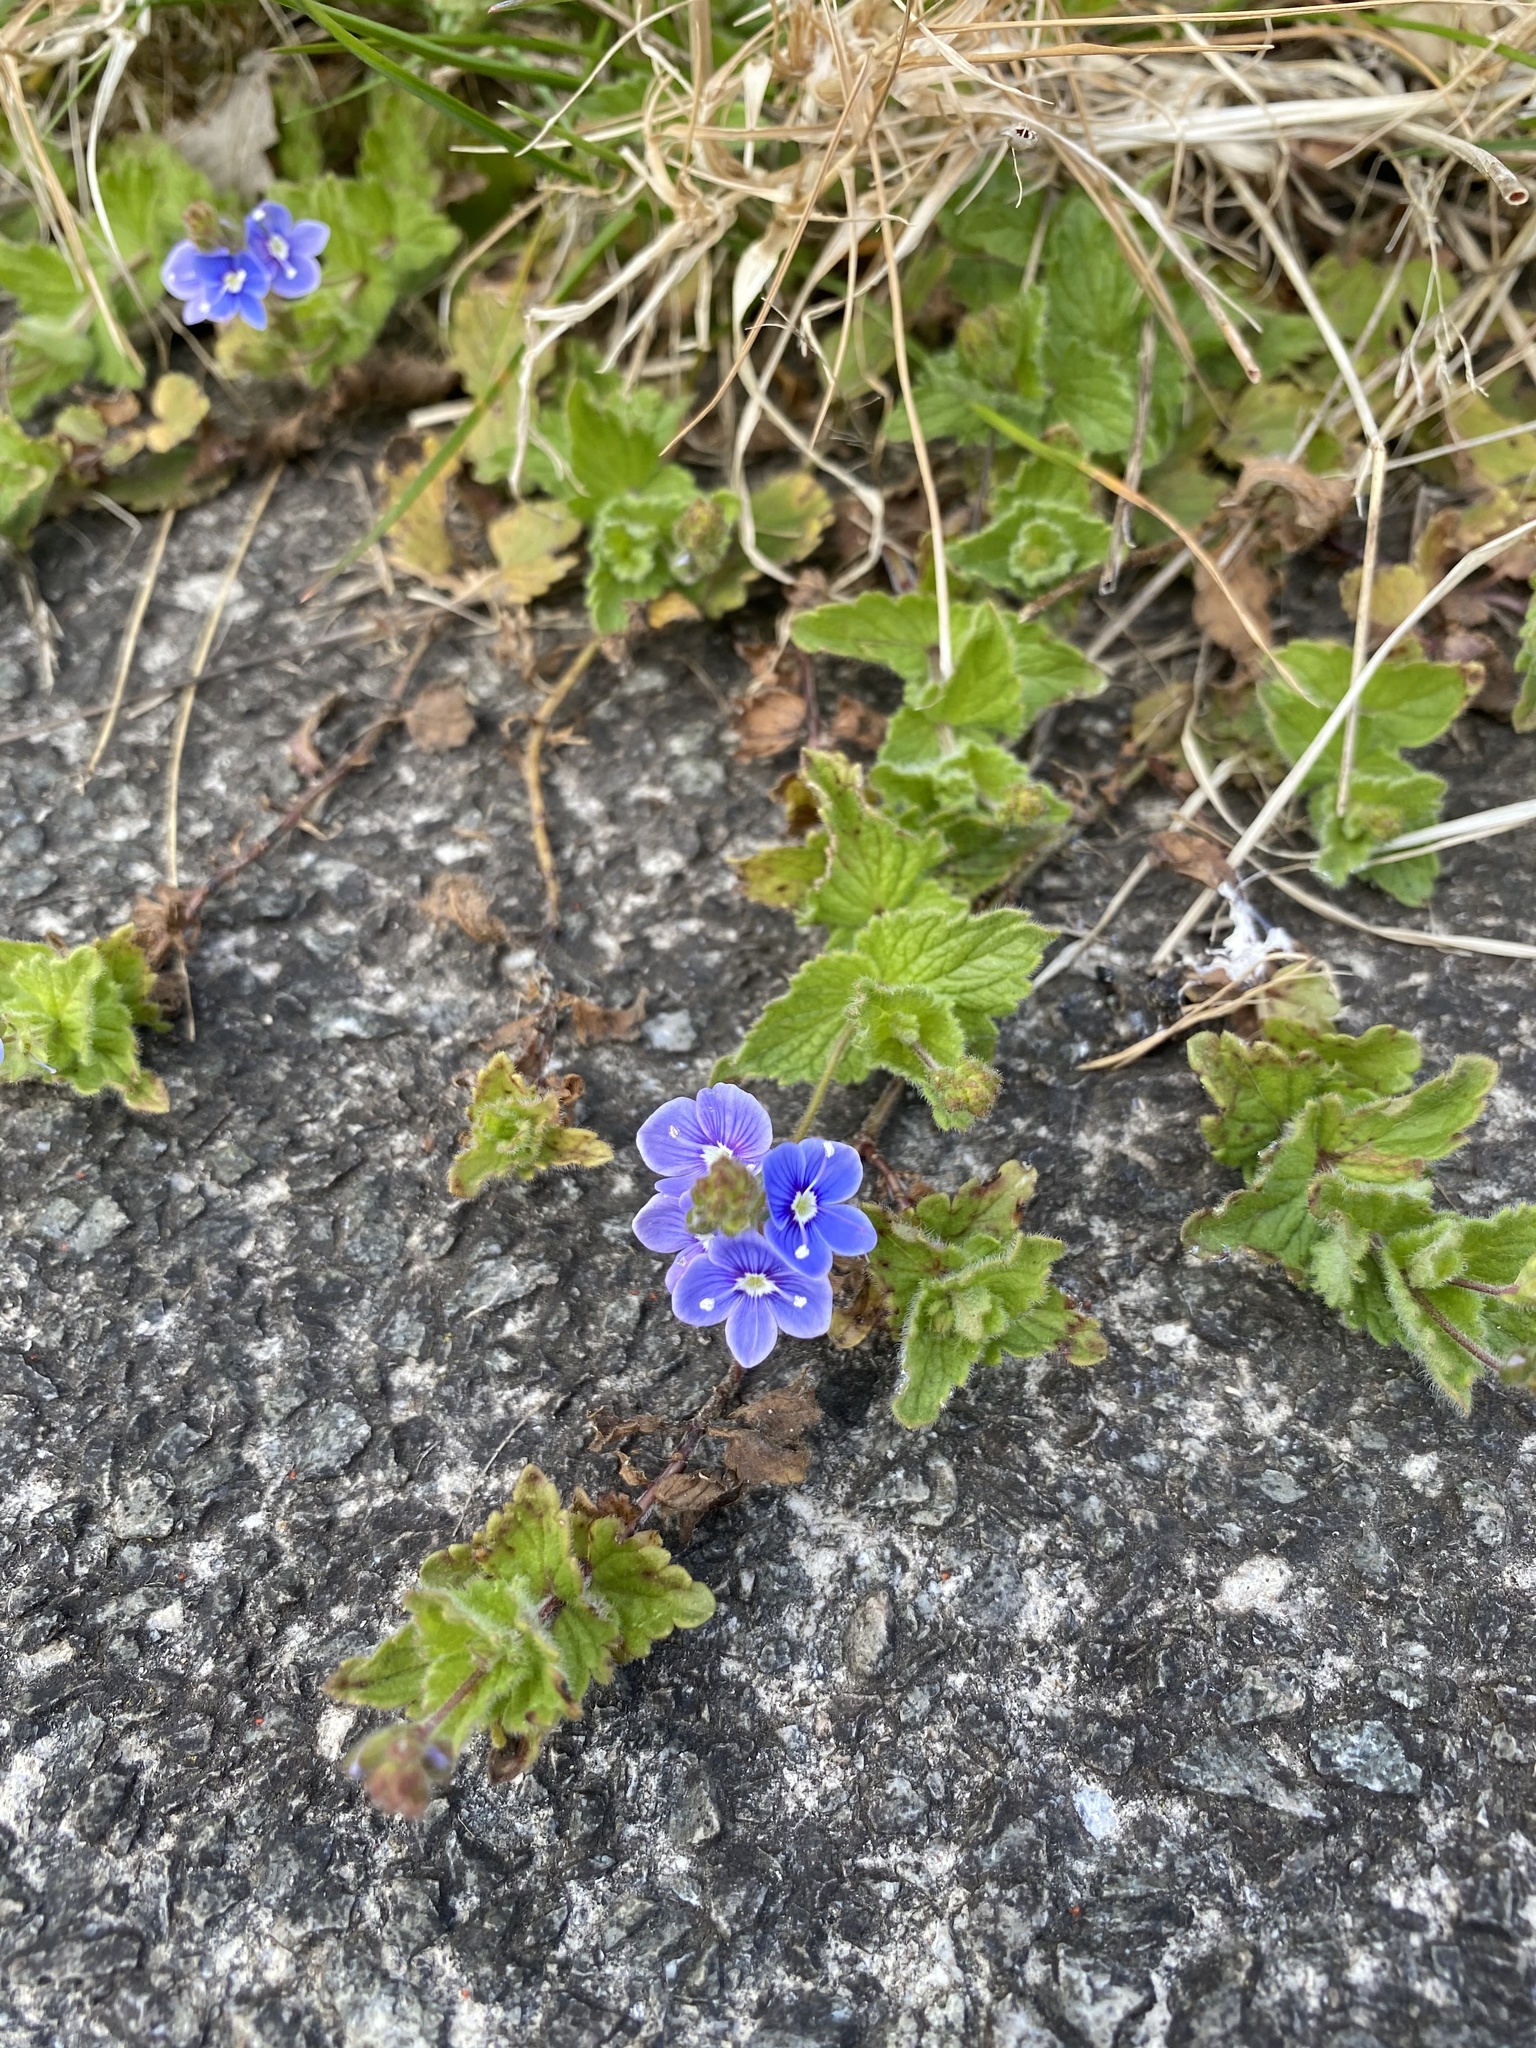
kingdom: Plantae
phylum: Tracheophyta
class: Magnoliopsida
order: Lamiales
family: Plantaginaceae
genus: Veronica
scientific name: Veronica chamaedrys
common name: Germander speedwell
